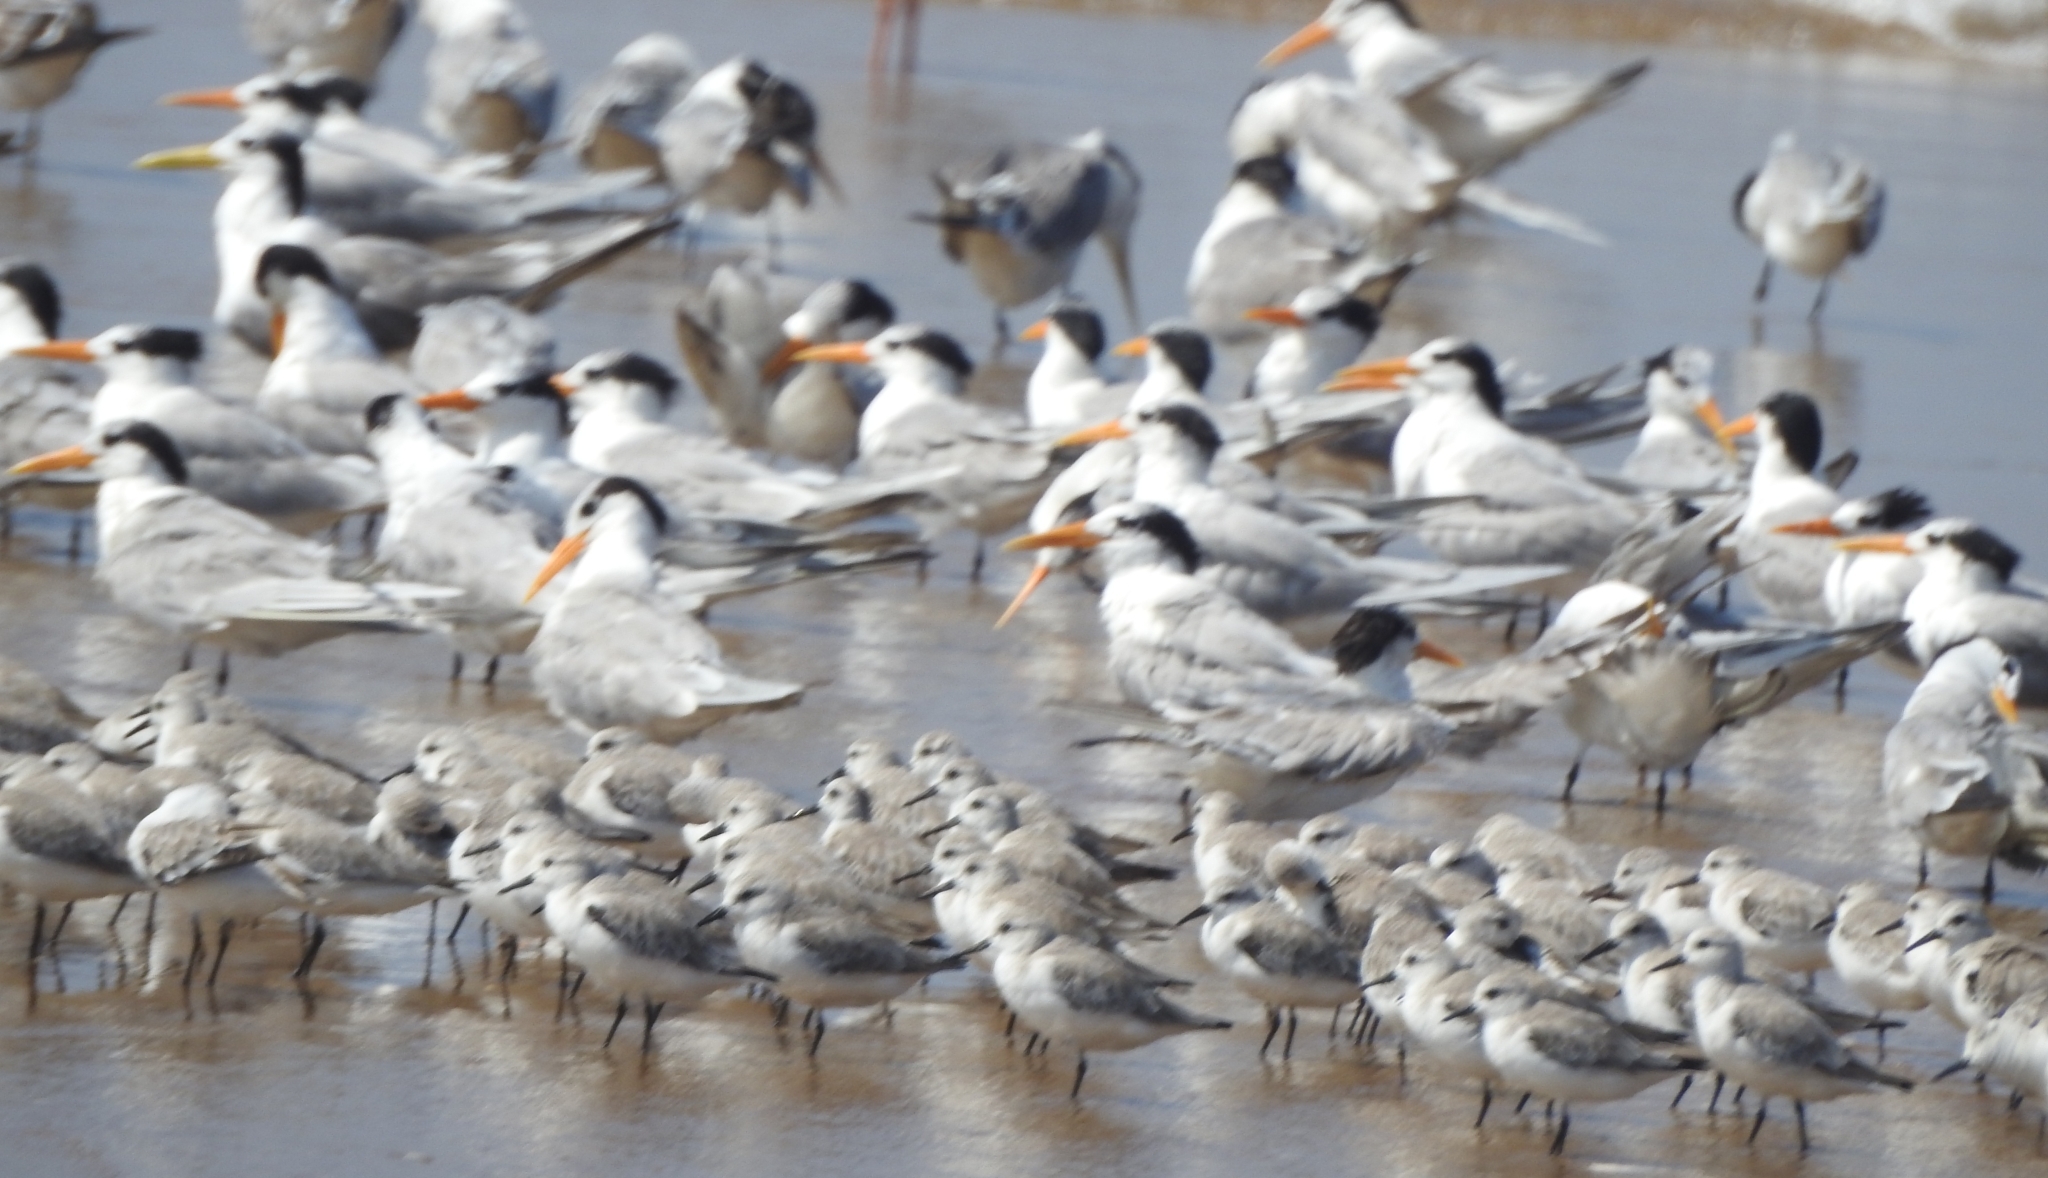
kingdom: Animalia
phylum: Chordata
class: Aves
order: Charadriiformes
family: Scolopacidae
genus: Calidris
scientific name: Calidris alba
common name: Sanderling
